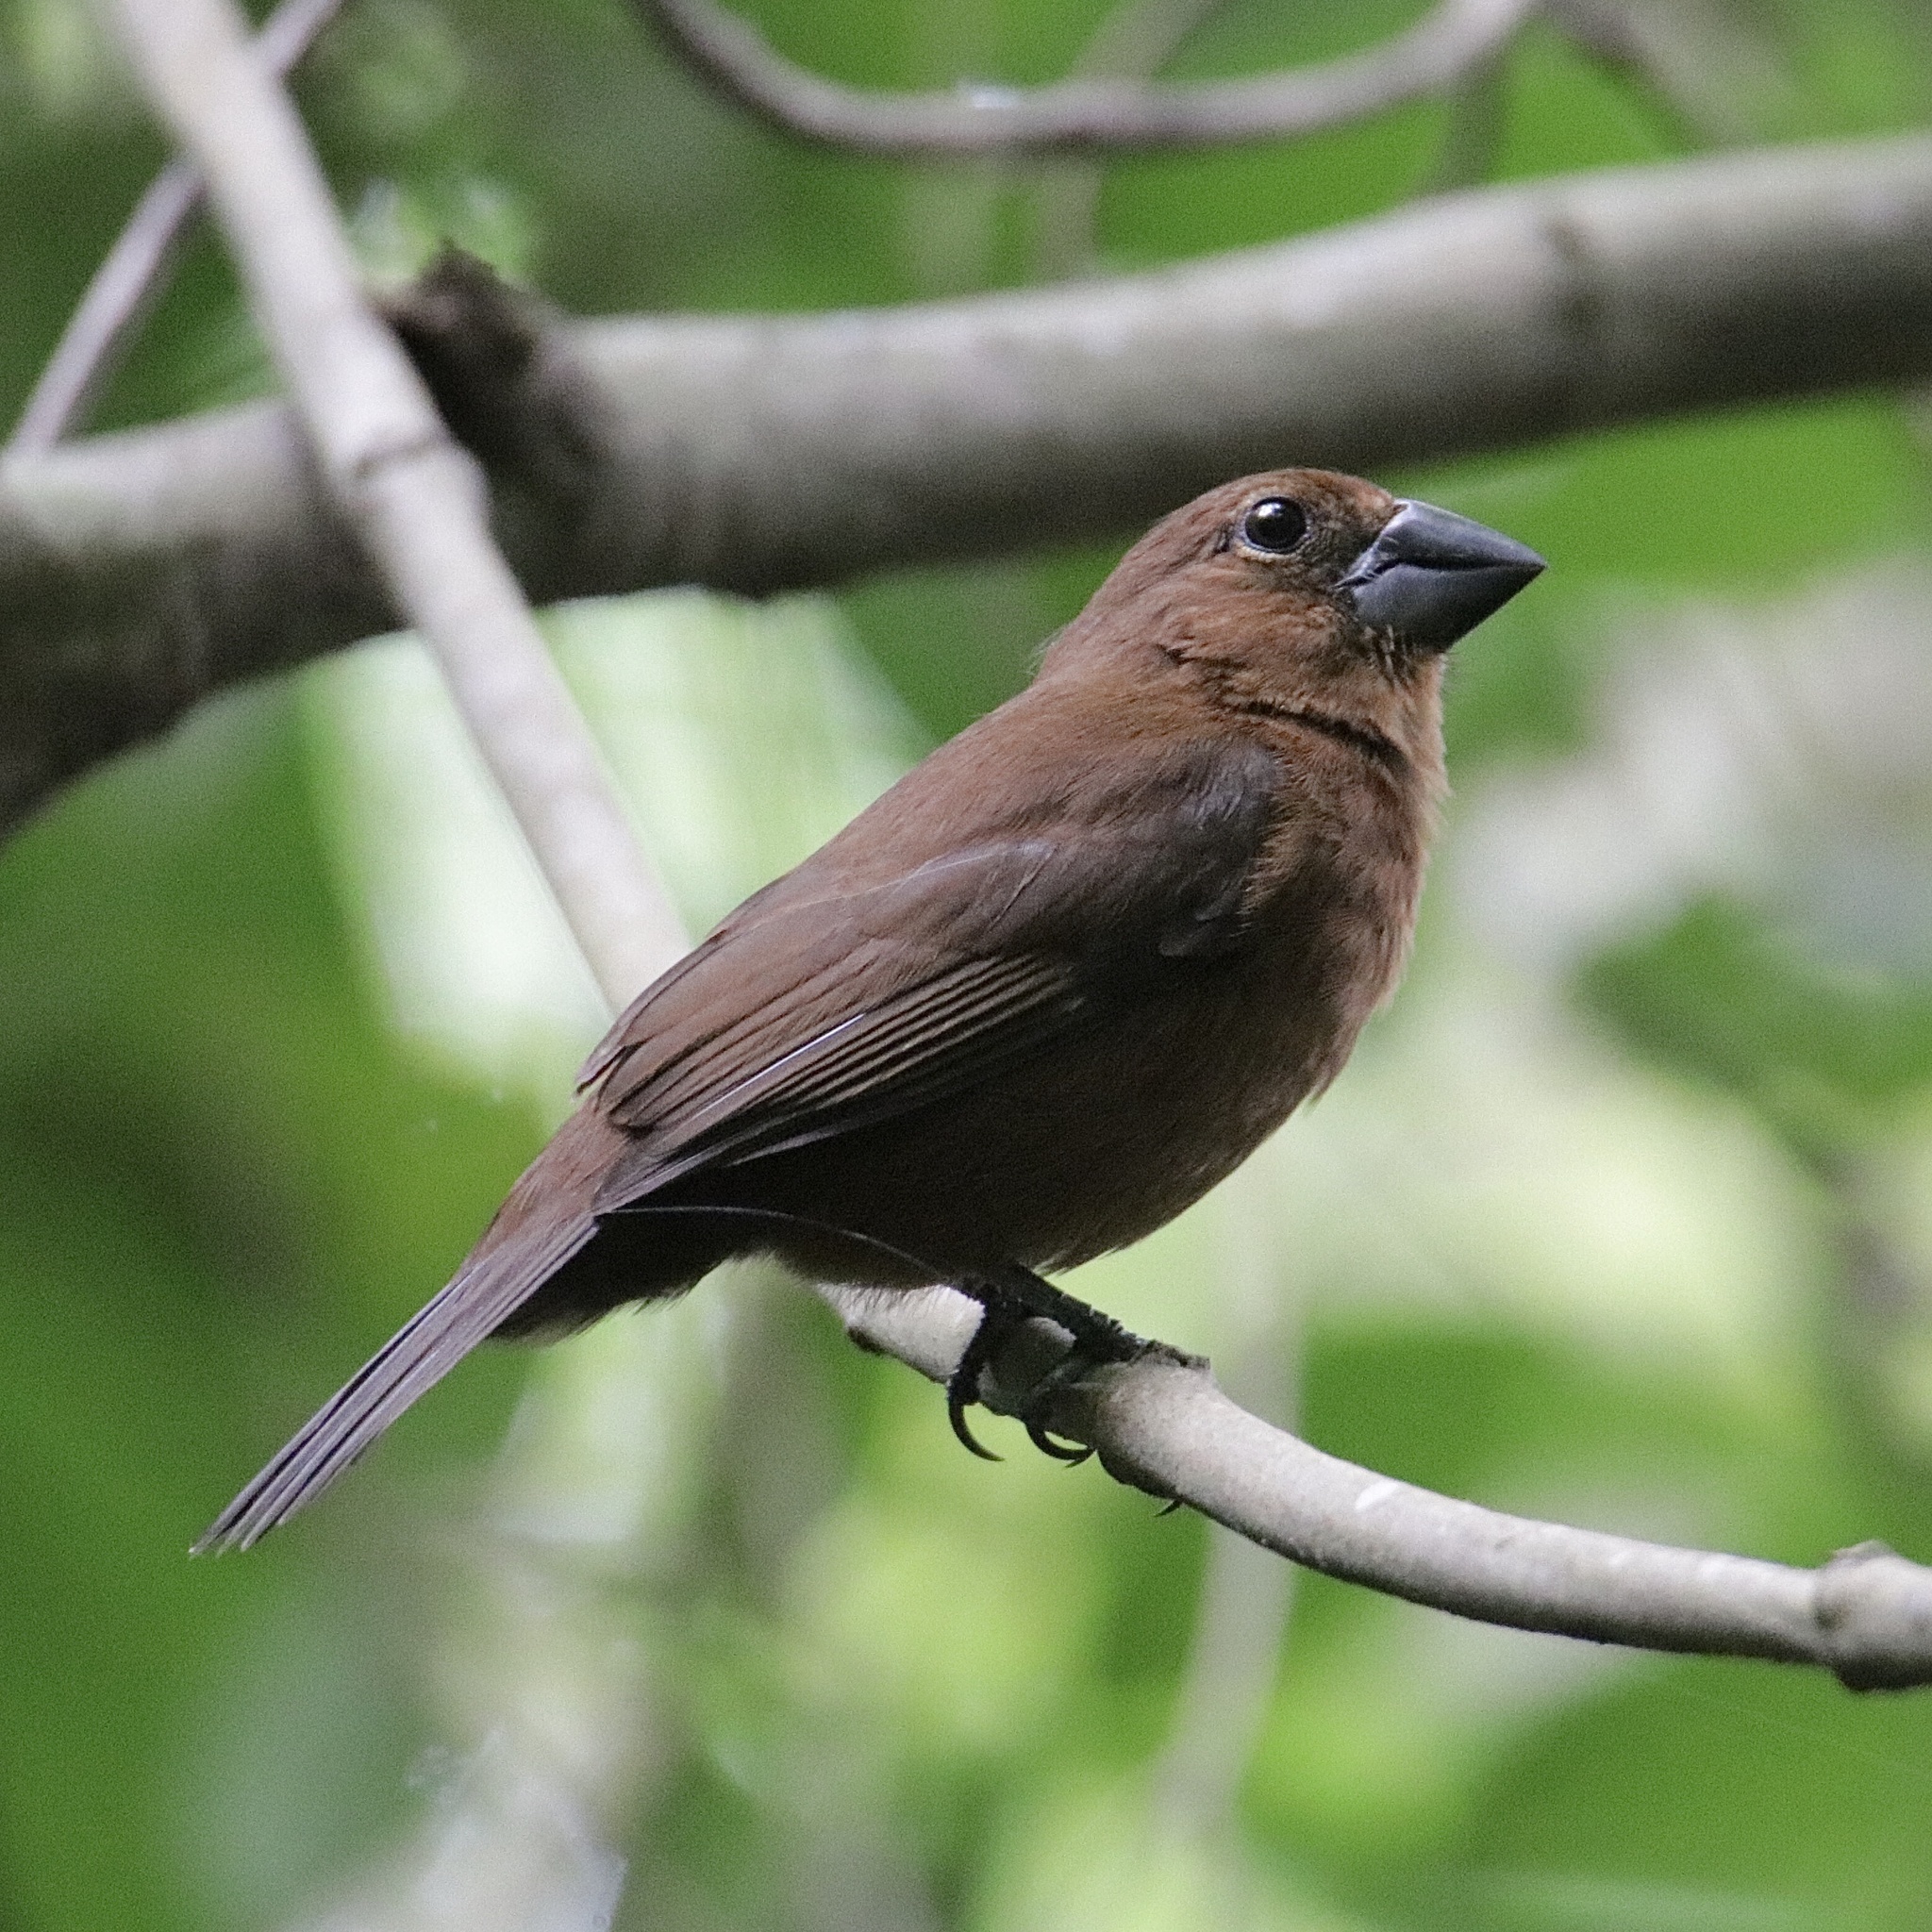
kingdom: Animalia
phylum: Chordata
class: Aves
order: Passeriformes
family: Cardinalidae
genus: Cyanocompsa
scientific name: Cyanocompsa cyanoides
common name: Blue-black grosbeak
